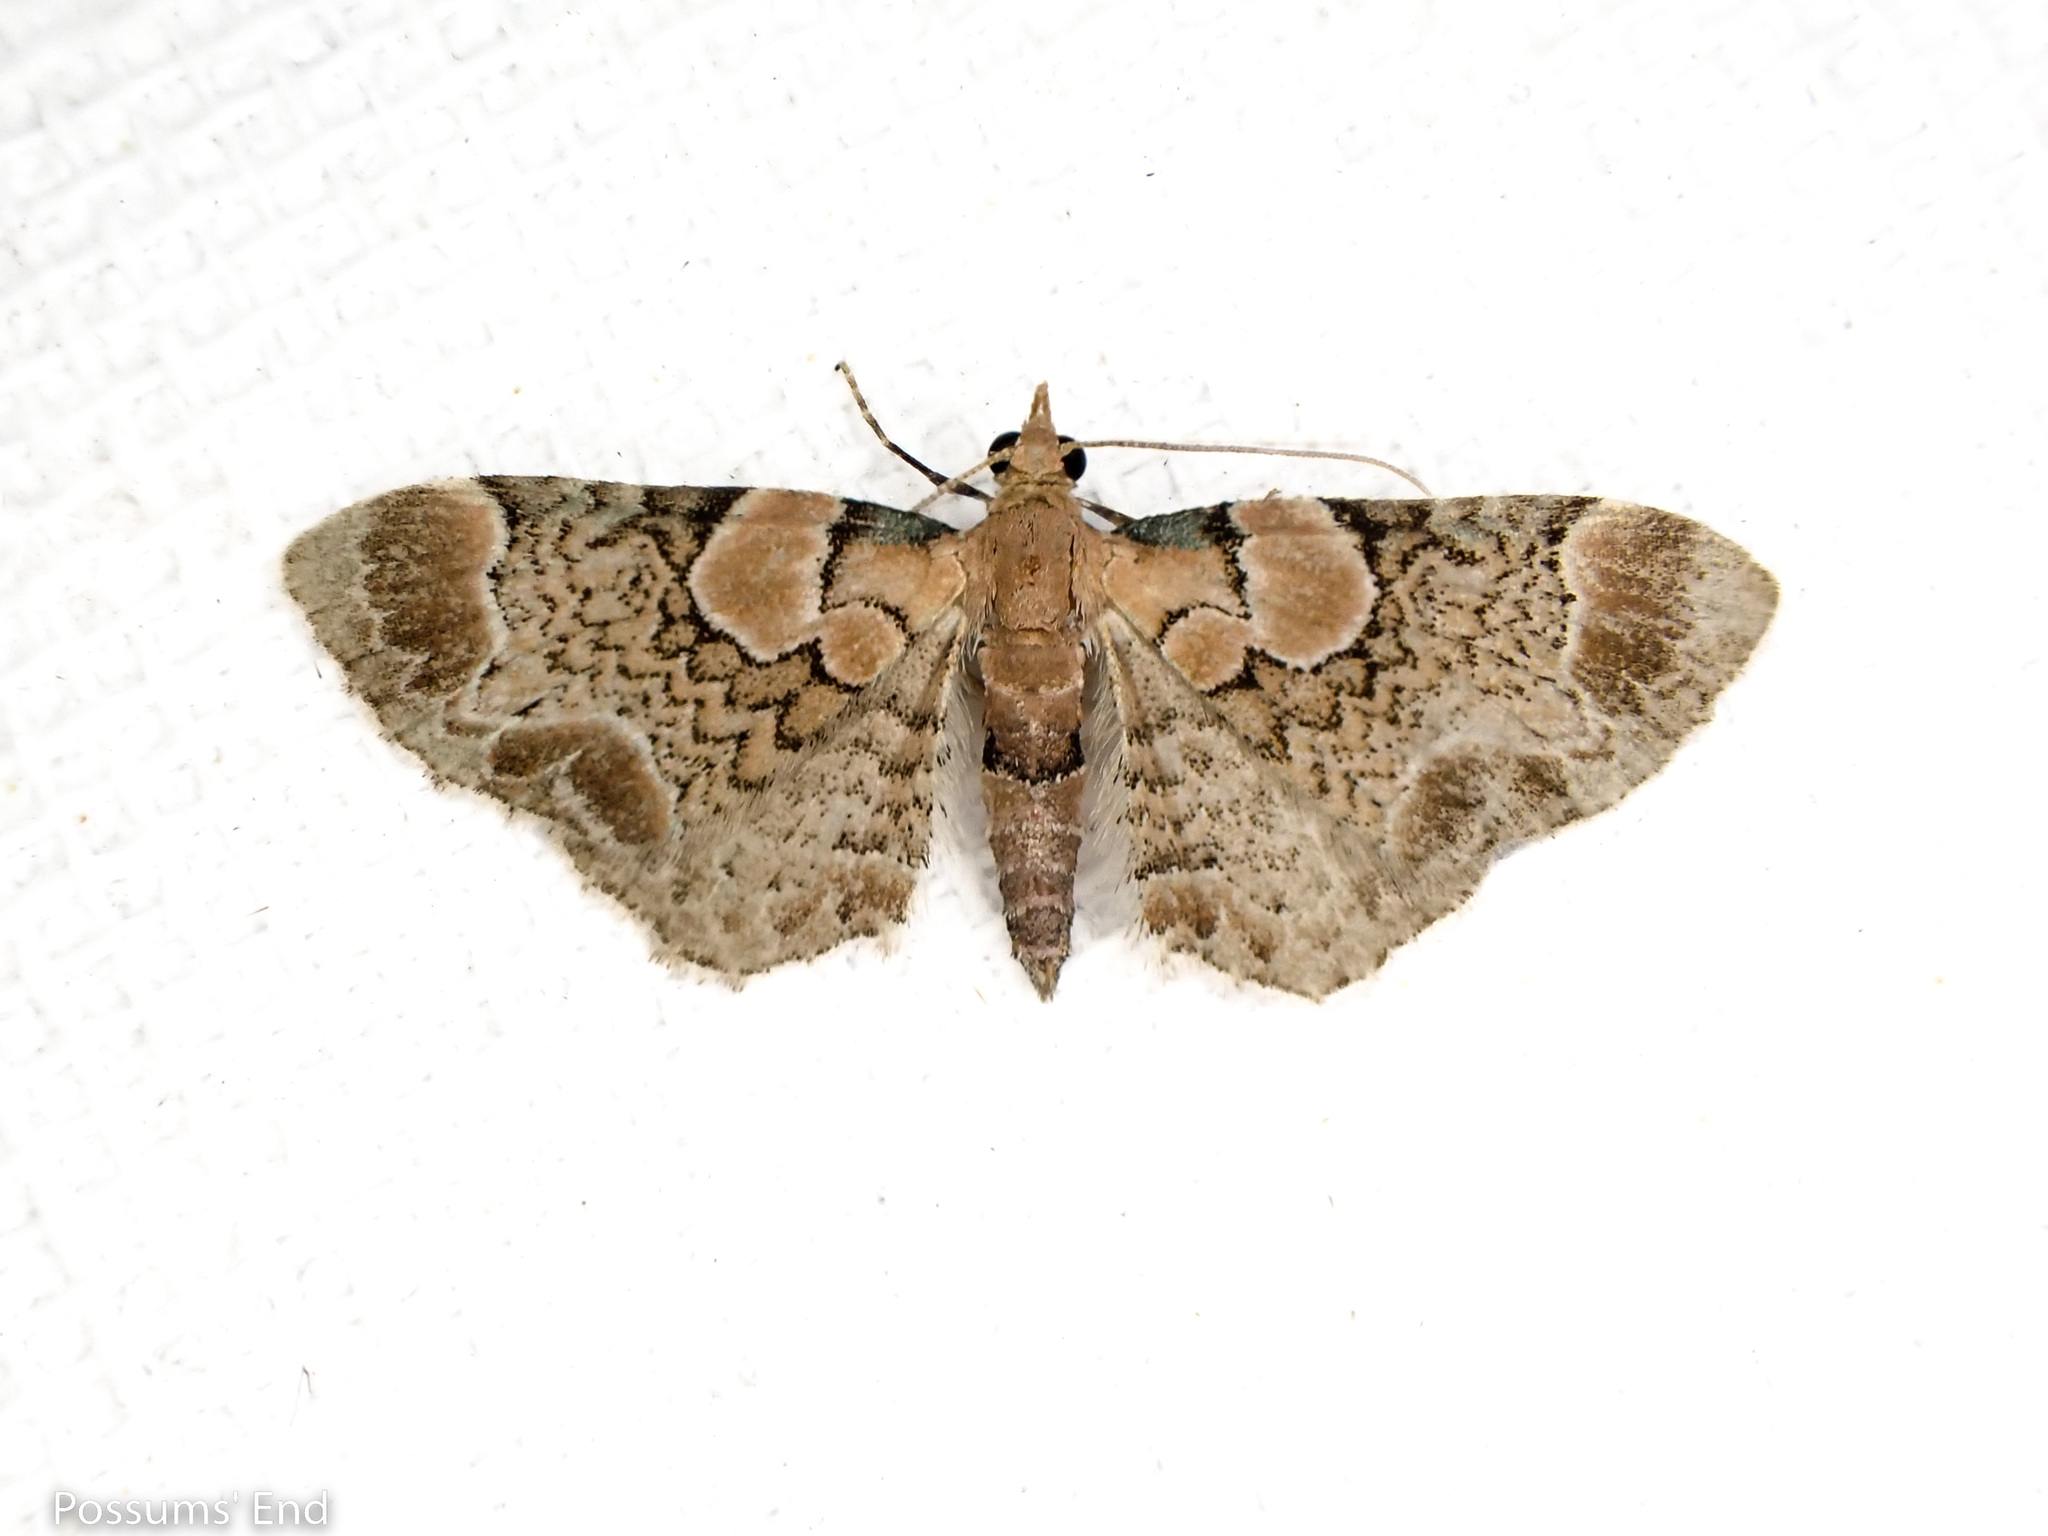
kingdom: Animalia
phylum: Arthropoda
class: Insecta
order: Lepidoptera
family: Geometridae
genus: Chloroclystis
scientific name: Chloroclystis
